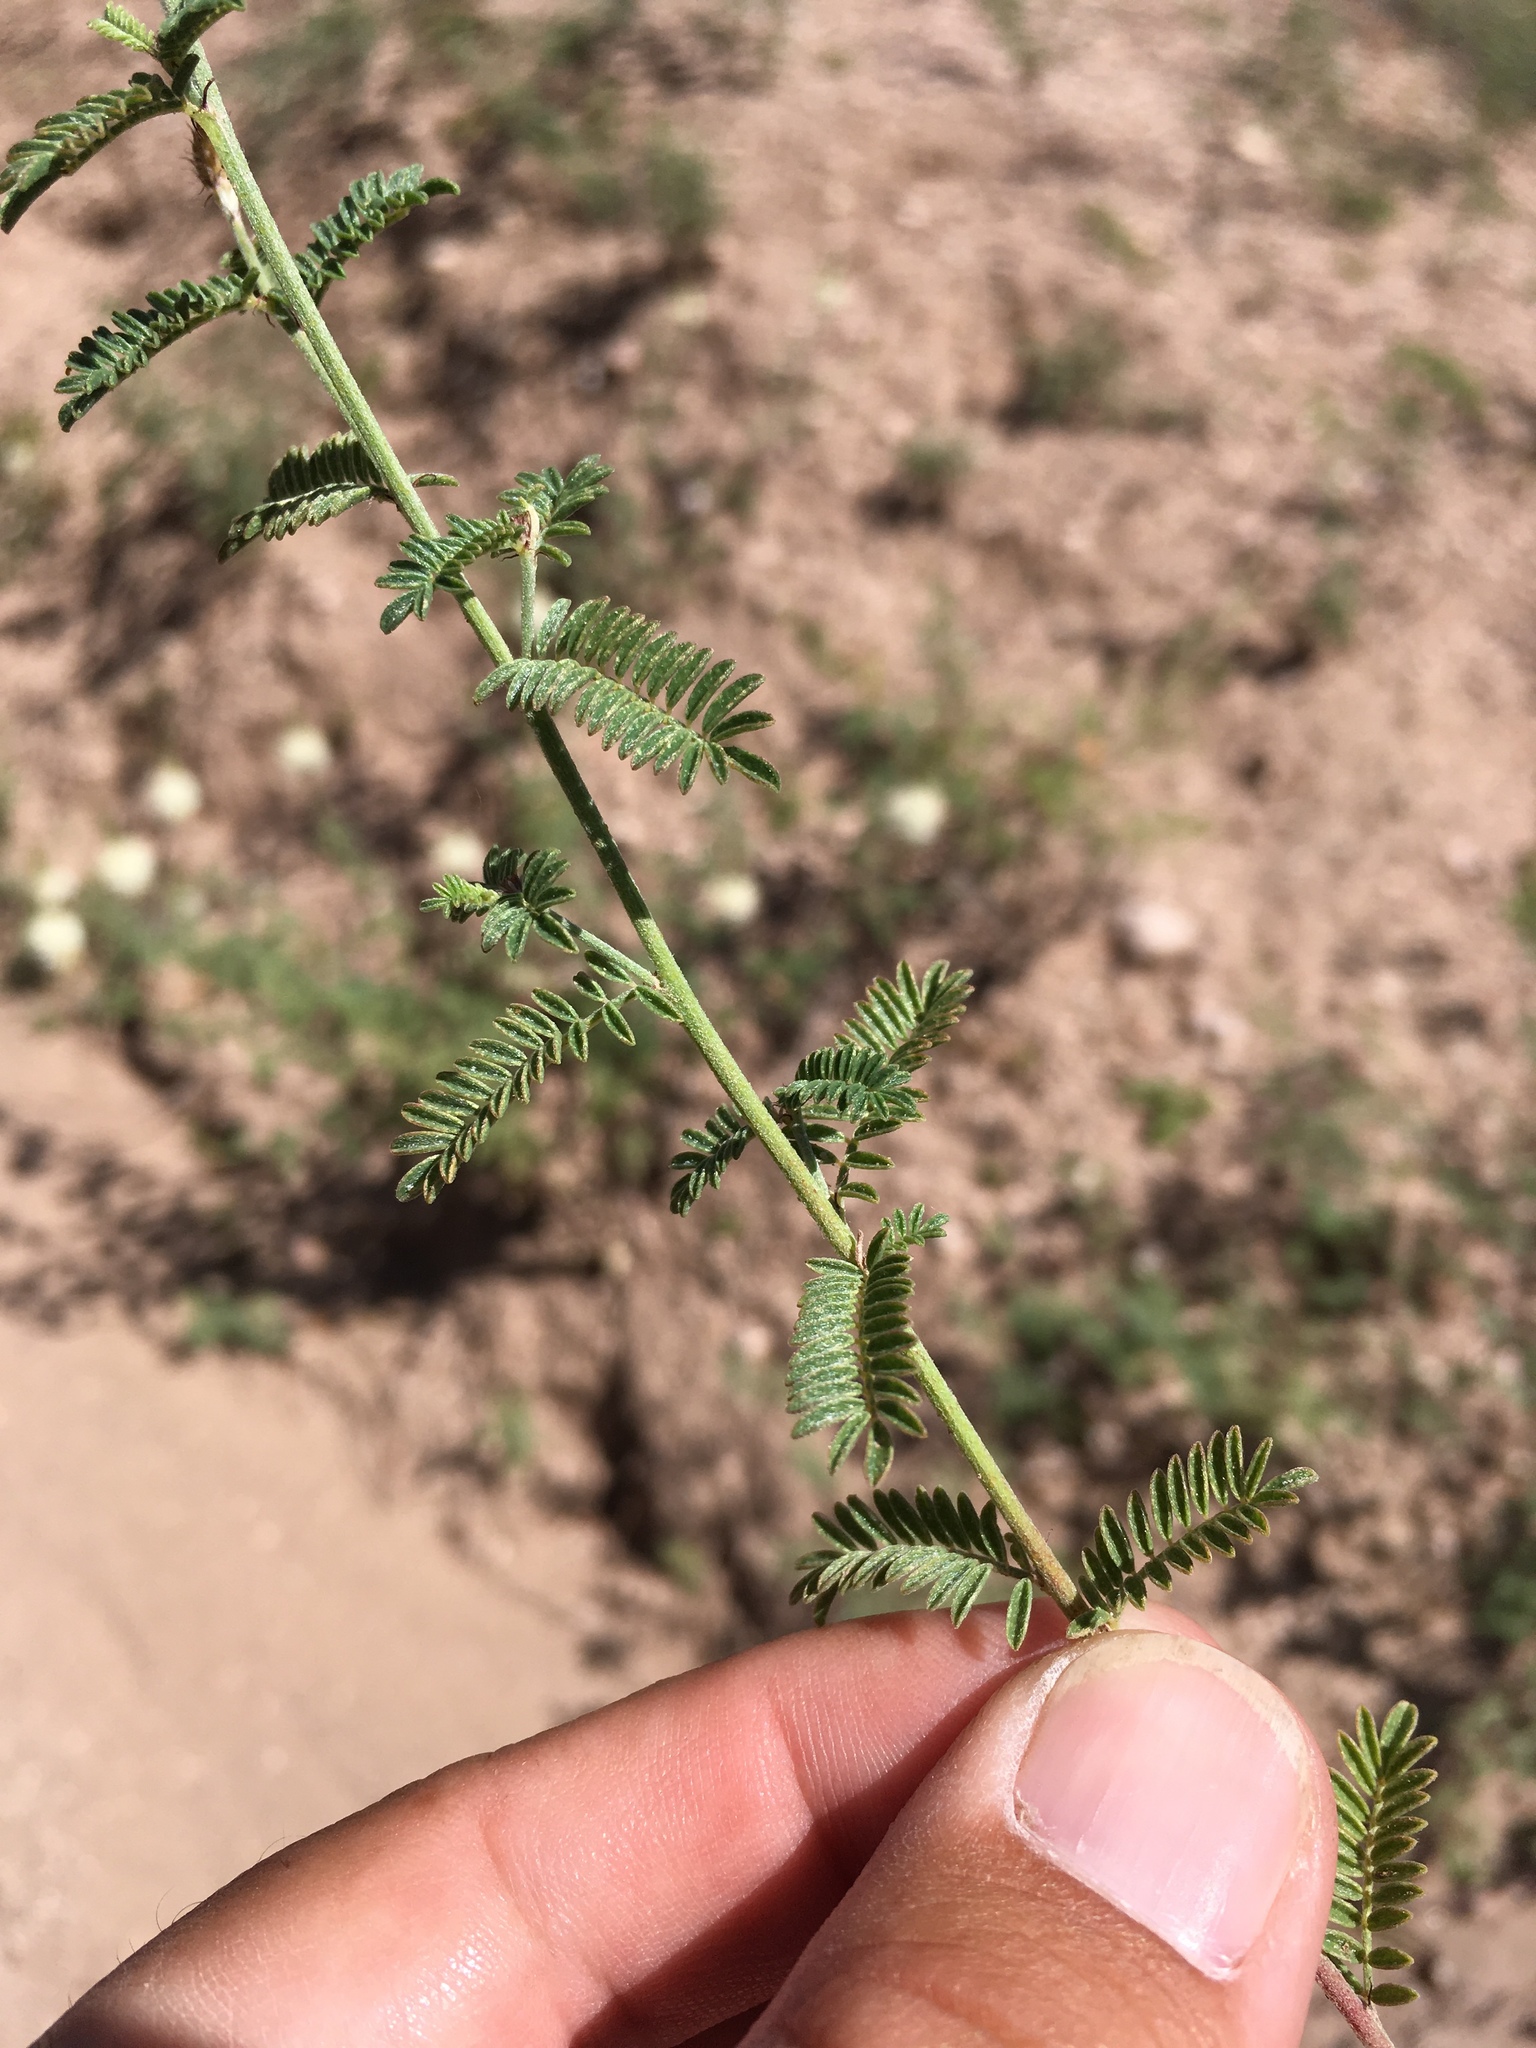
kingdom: Plantae
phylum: Tracheophyta
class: Magnoliopsida
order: Fabales
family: Fabaceae
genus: Dalea
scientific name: Dalea albiflora
